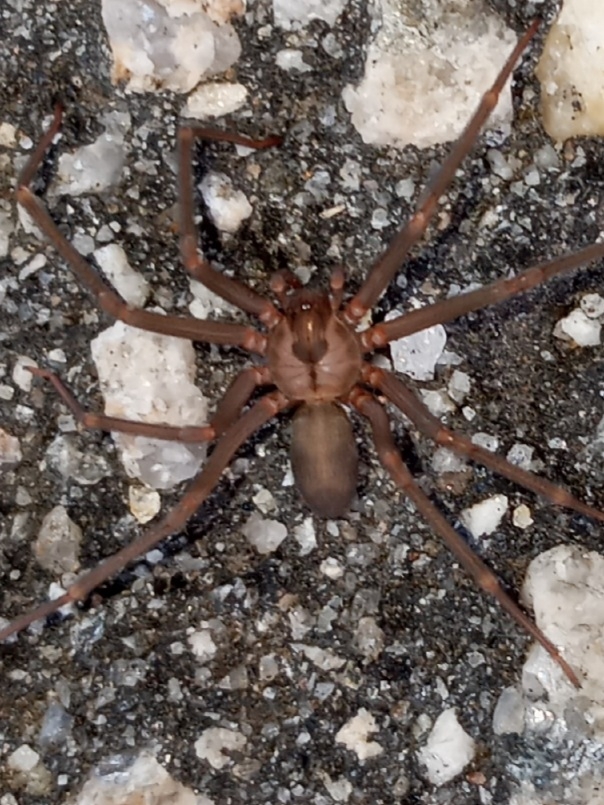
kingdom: Animalia
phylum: Arthropoda
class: Arachnida
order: Araneae
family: Sicariidae
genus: Loxosceles
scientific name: Loxosceles reclusa
